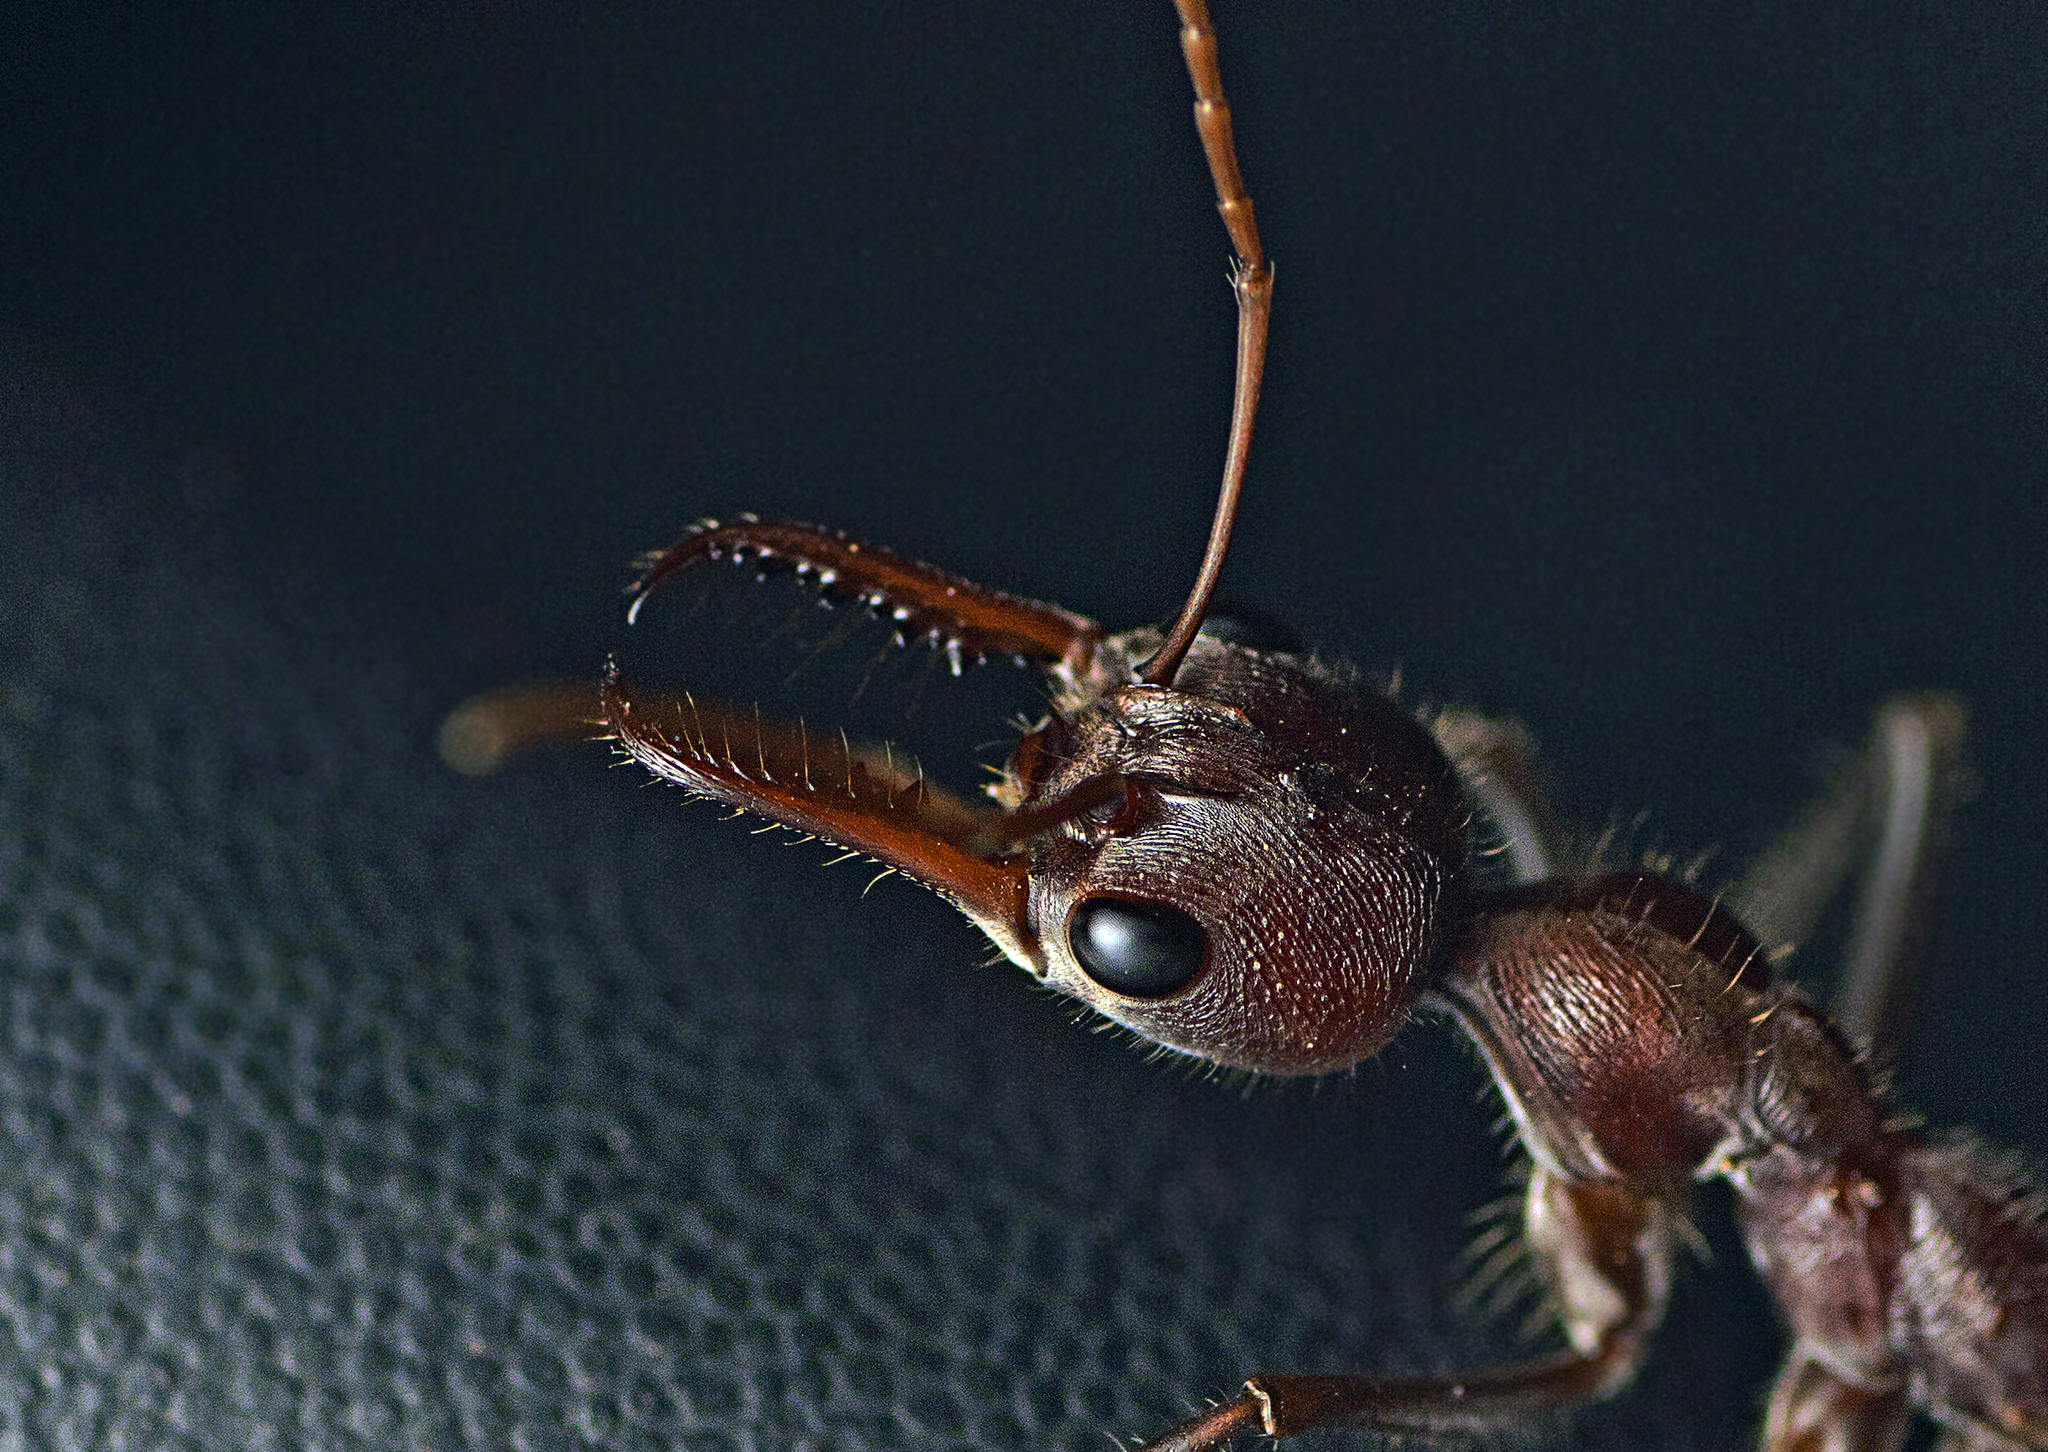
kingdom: Animalia
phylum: Arthropoda
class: Insecta
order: Hymenoptera
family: Formicidae
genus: Myrmecia
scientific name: Myrmecia comata
